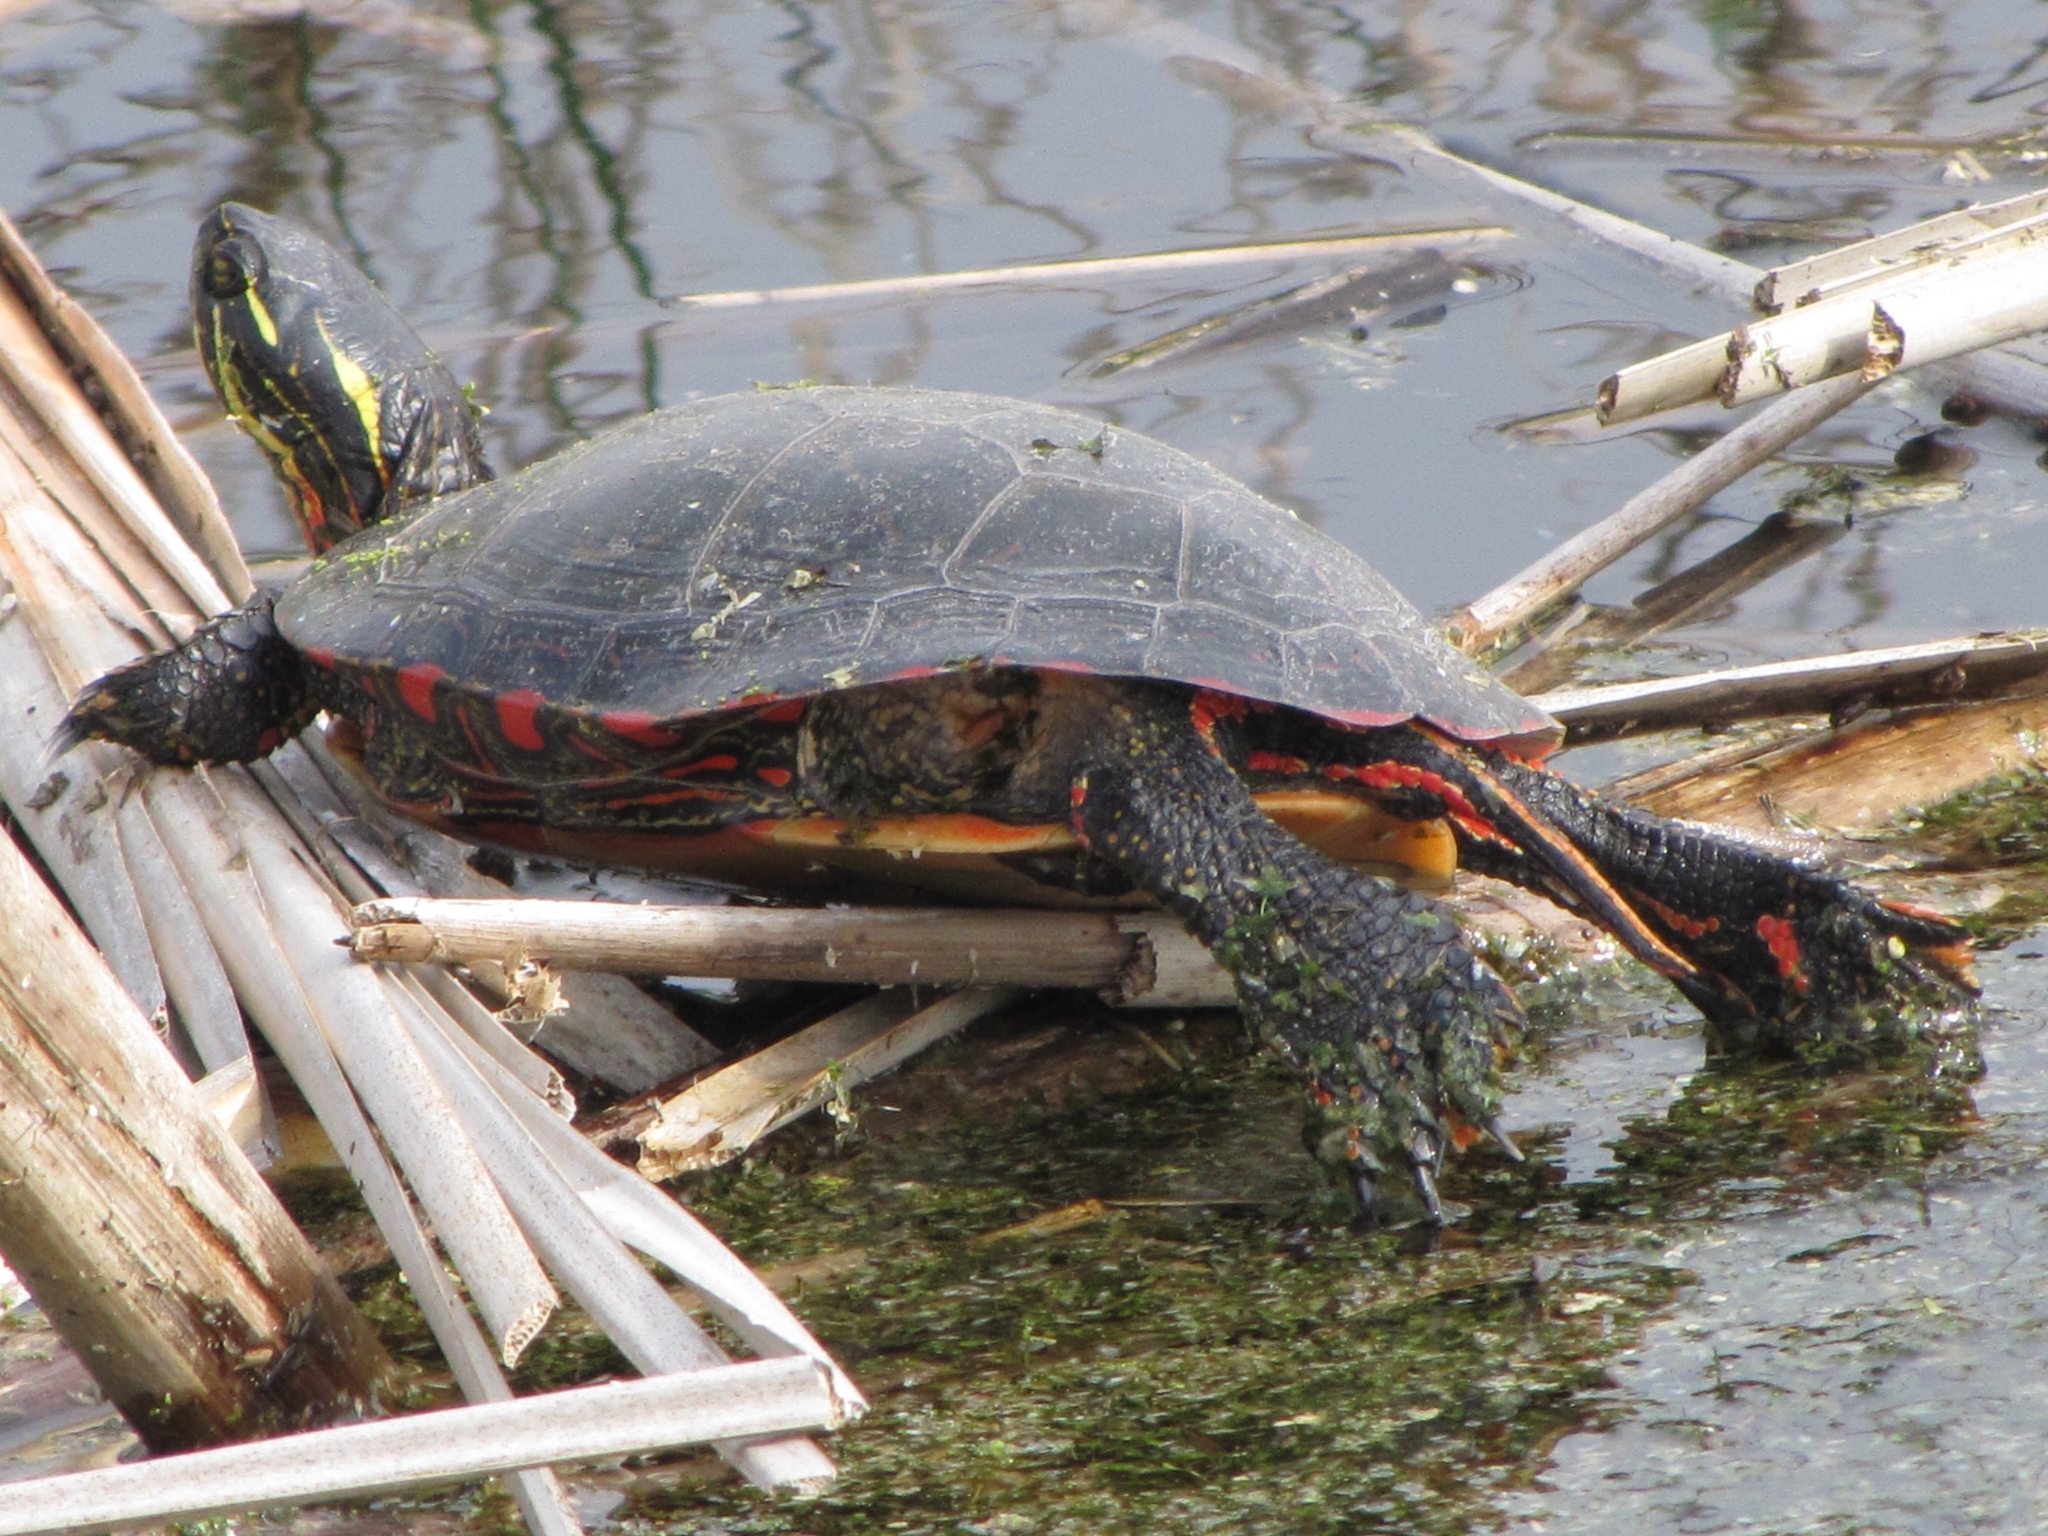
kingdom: Animalia
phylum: Chordata
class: Testudines
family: Emydidae
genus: Chrysemys
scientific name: Chrysemys picta
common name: Painted turtle
